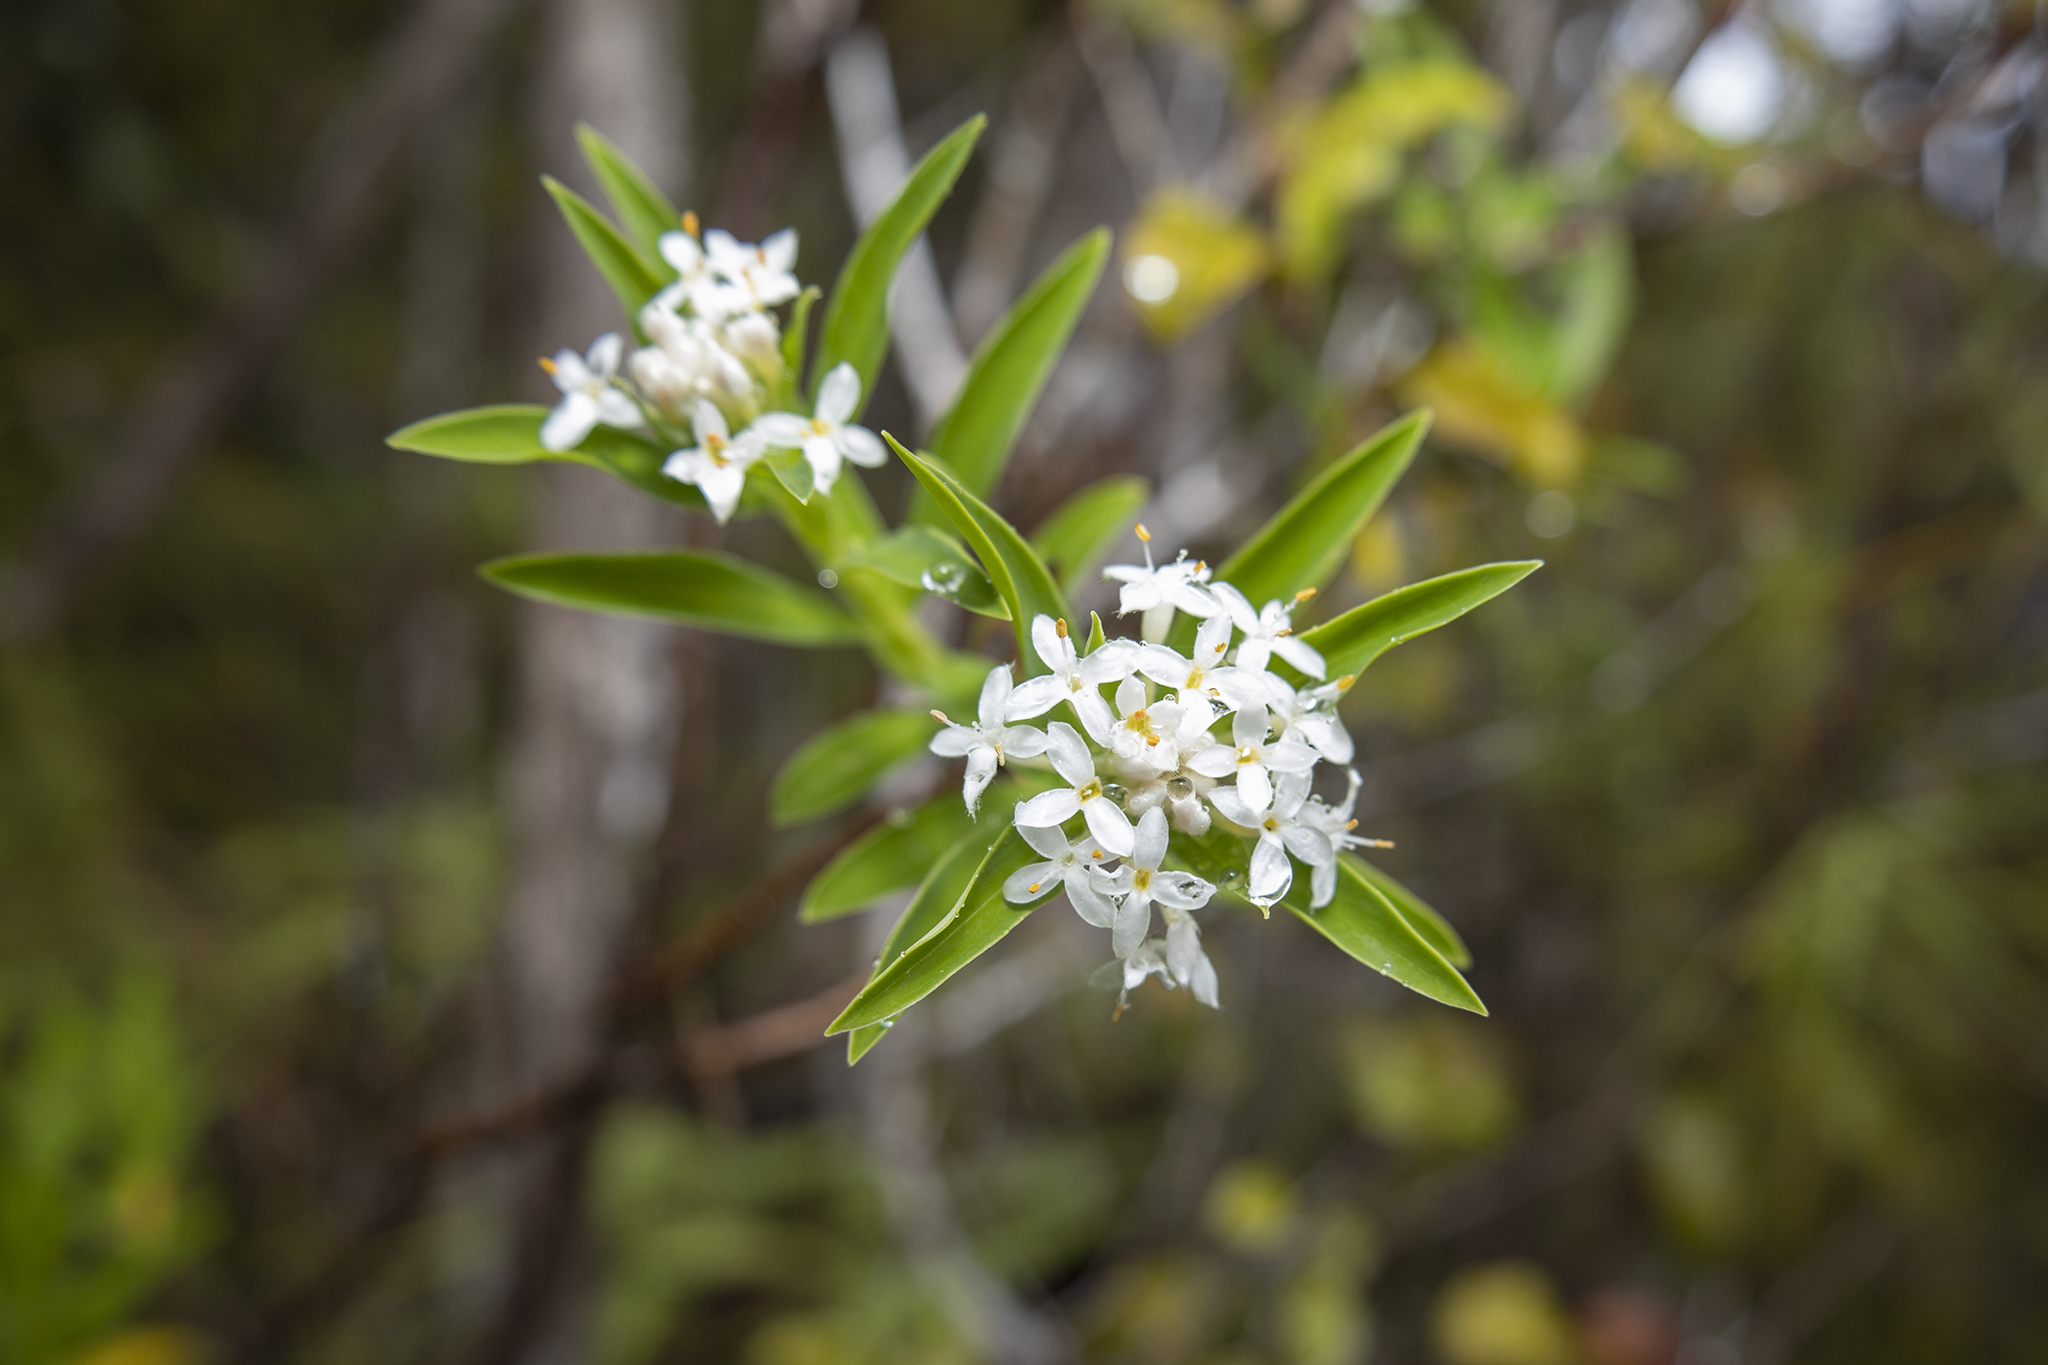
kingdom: Plantae
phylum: Tracheophyta
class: Magnoliopsida
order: Malvales
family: Thymelaeaceae
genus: Pimelea
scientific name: Pimelea longifolia
